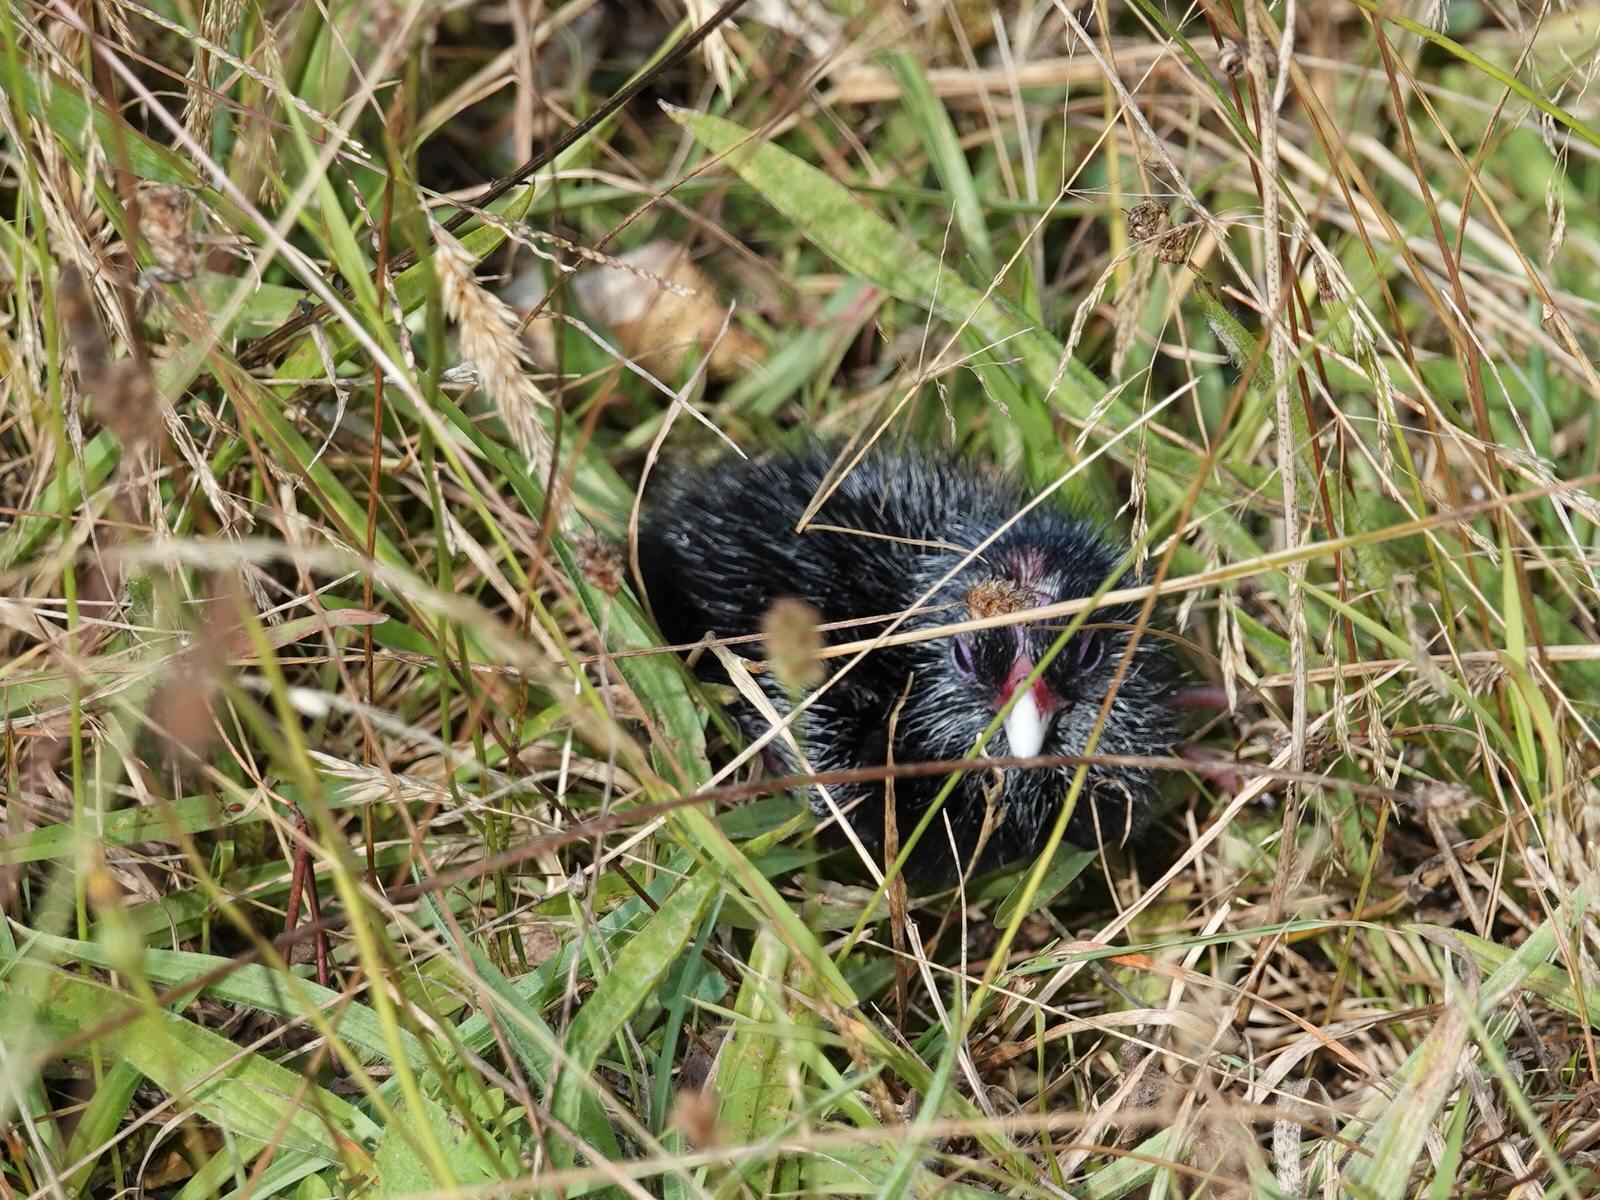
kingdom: Animalia
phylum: Chordata
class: Aves
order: Gruiformes
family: Rallidae
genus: Porphyrio
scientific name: Porphyrio melanotus
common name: Australasian swamphen
